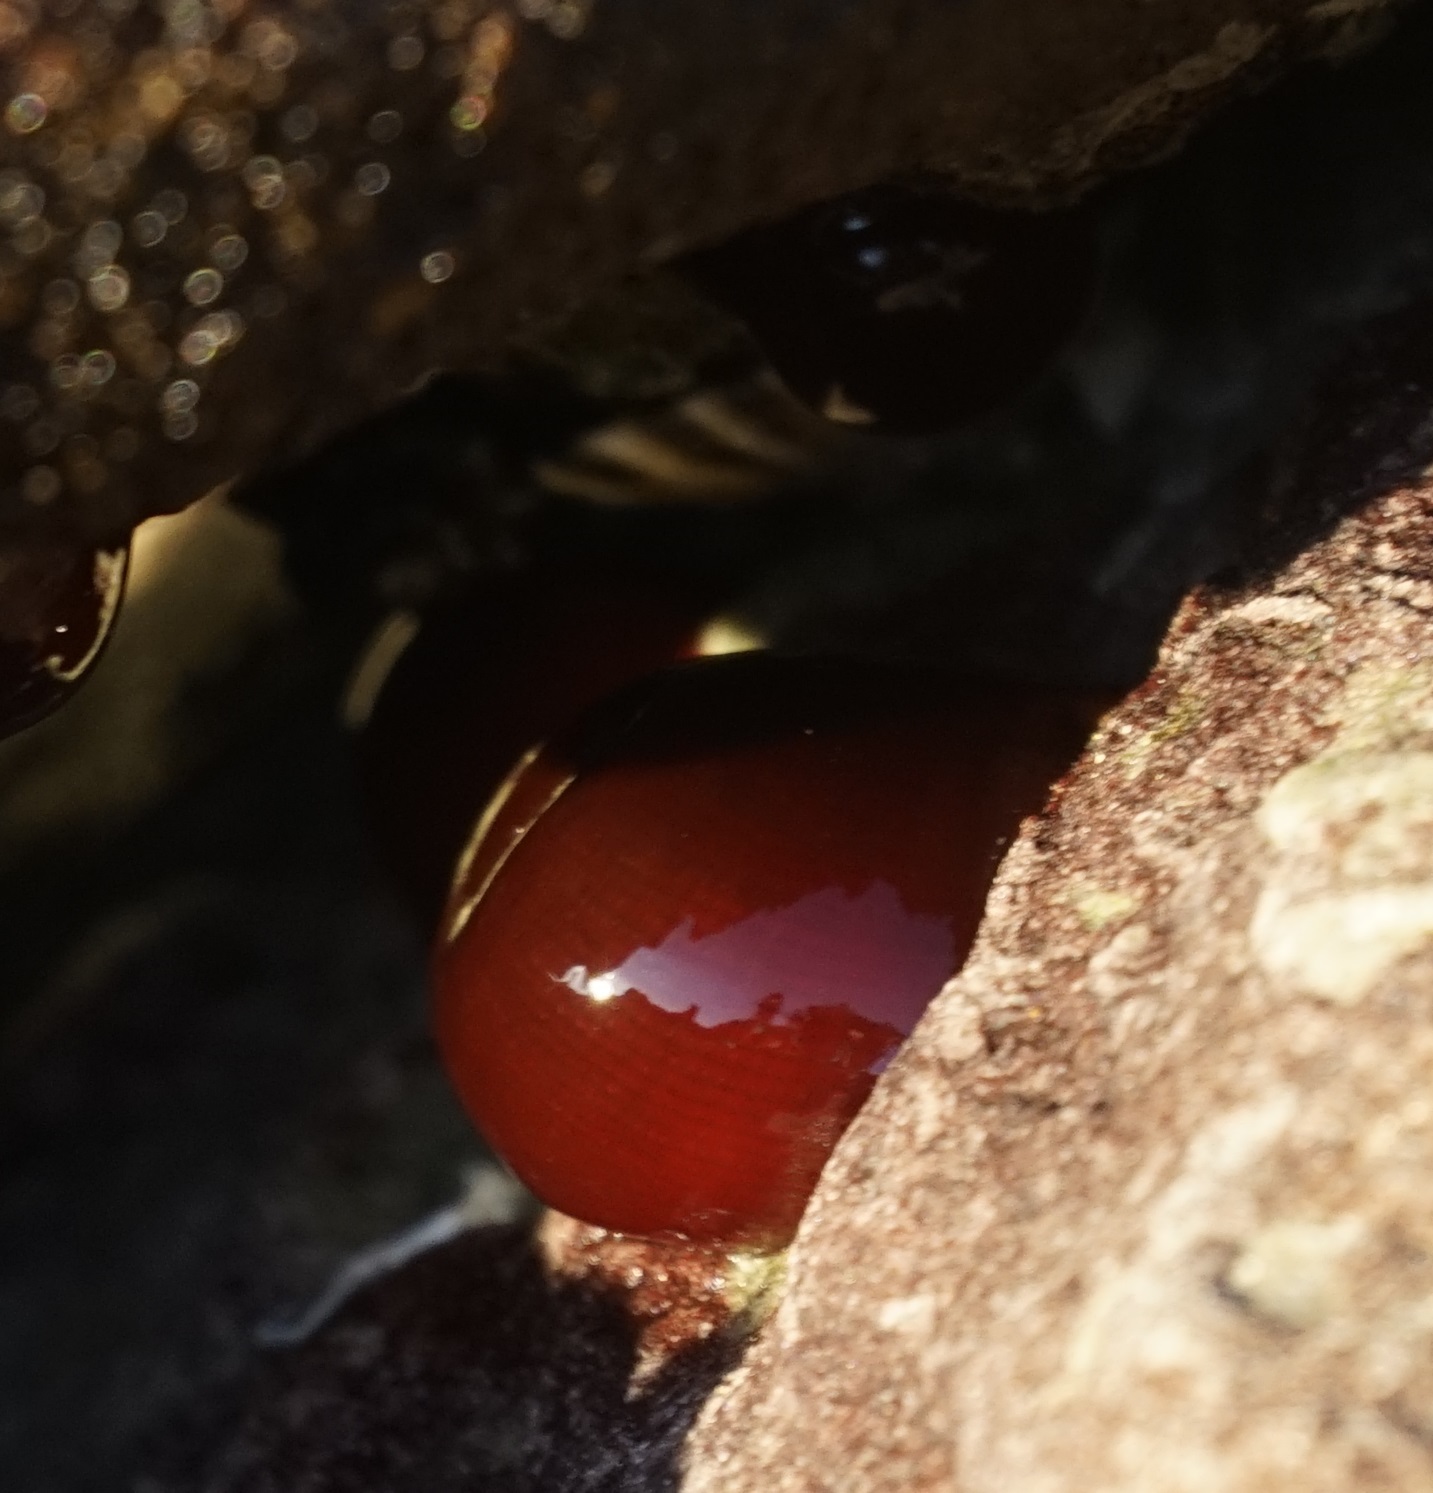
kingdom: Animalia
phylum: Cnidaria
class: Anthozoa
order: Actiniaria
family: Actiniidae
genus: Actinia
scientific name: Actinia tenebrosa
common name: Waratah anemone
